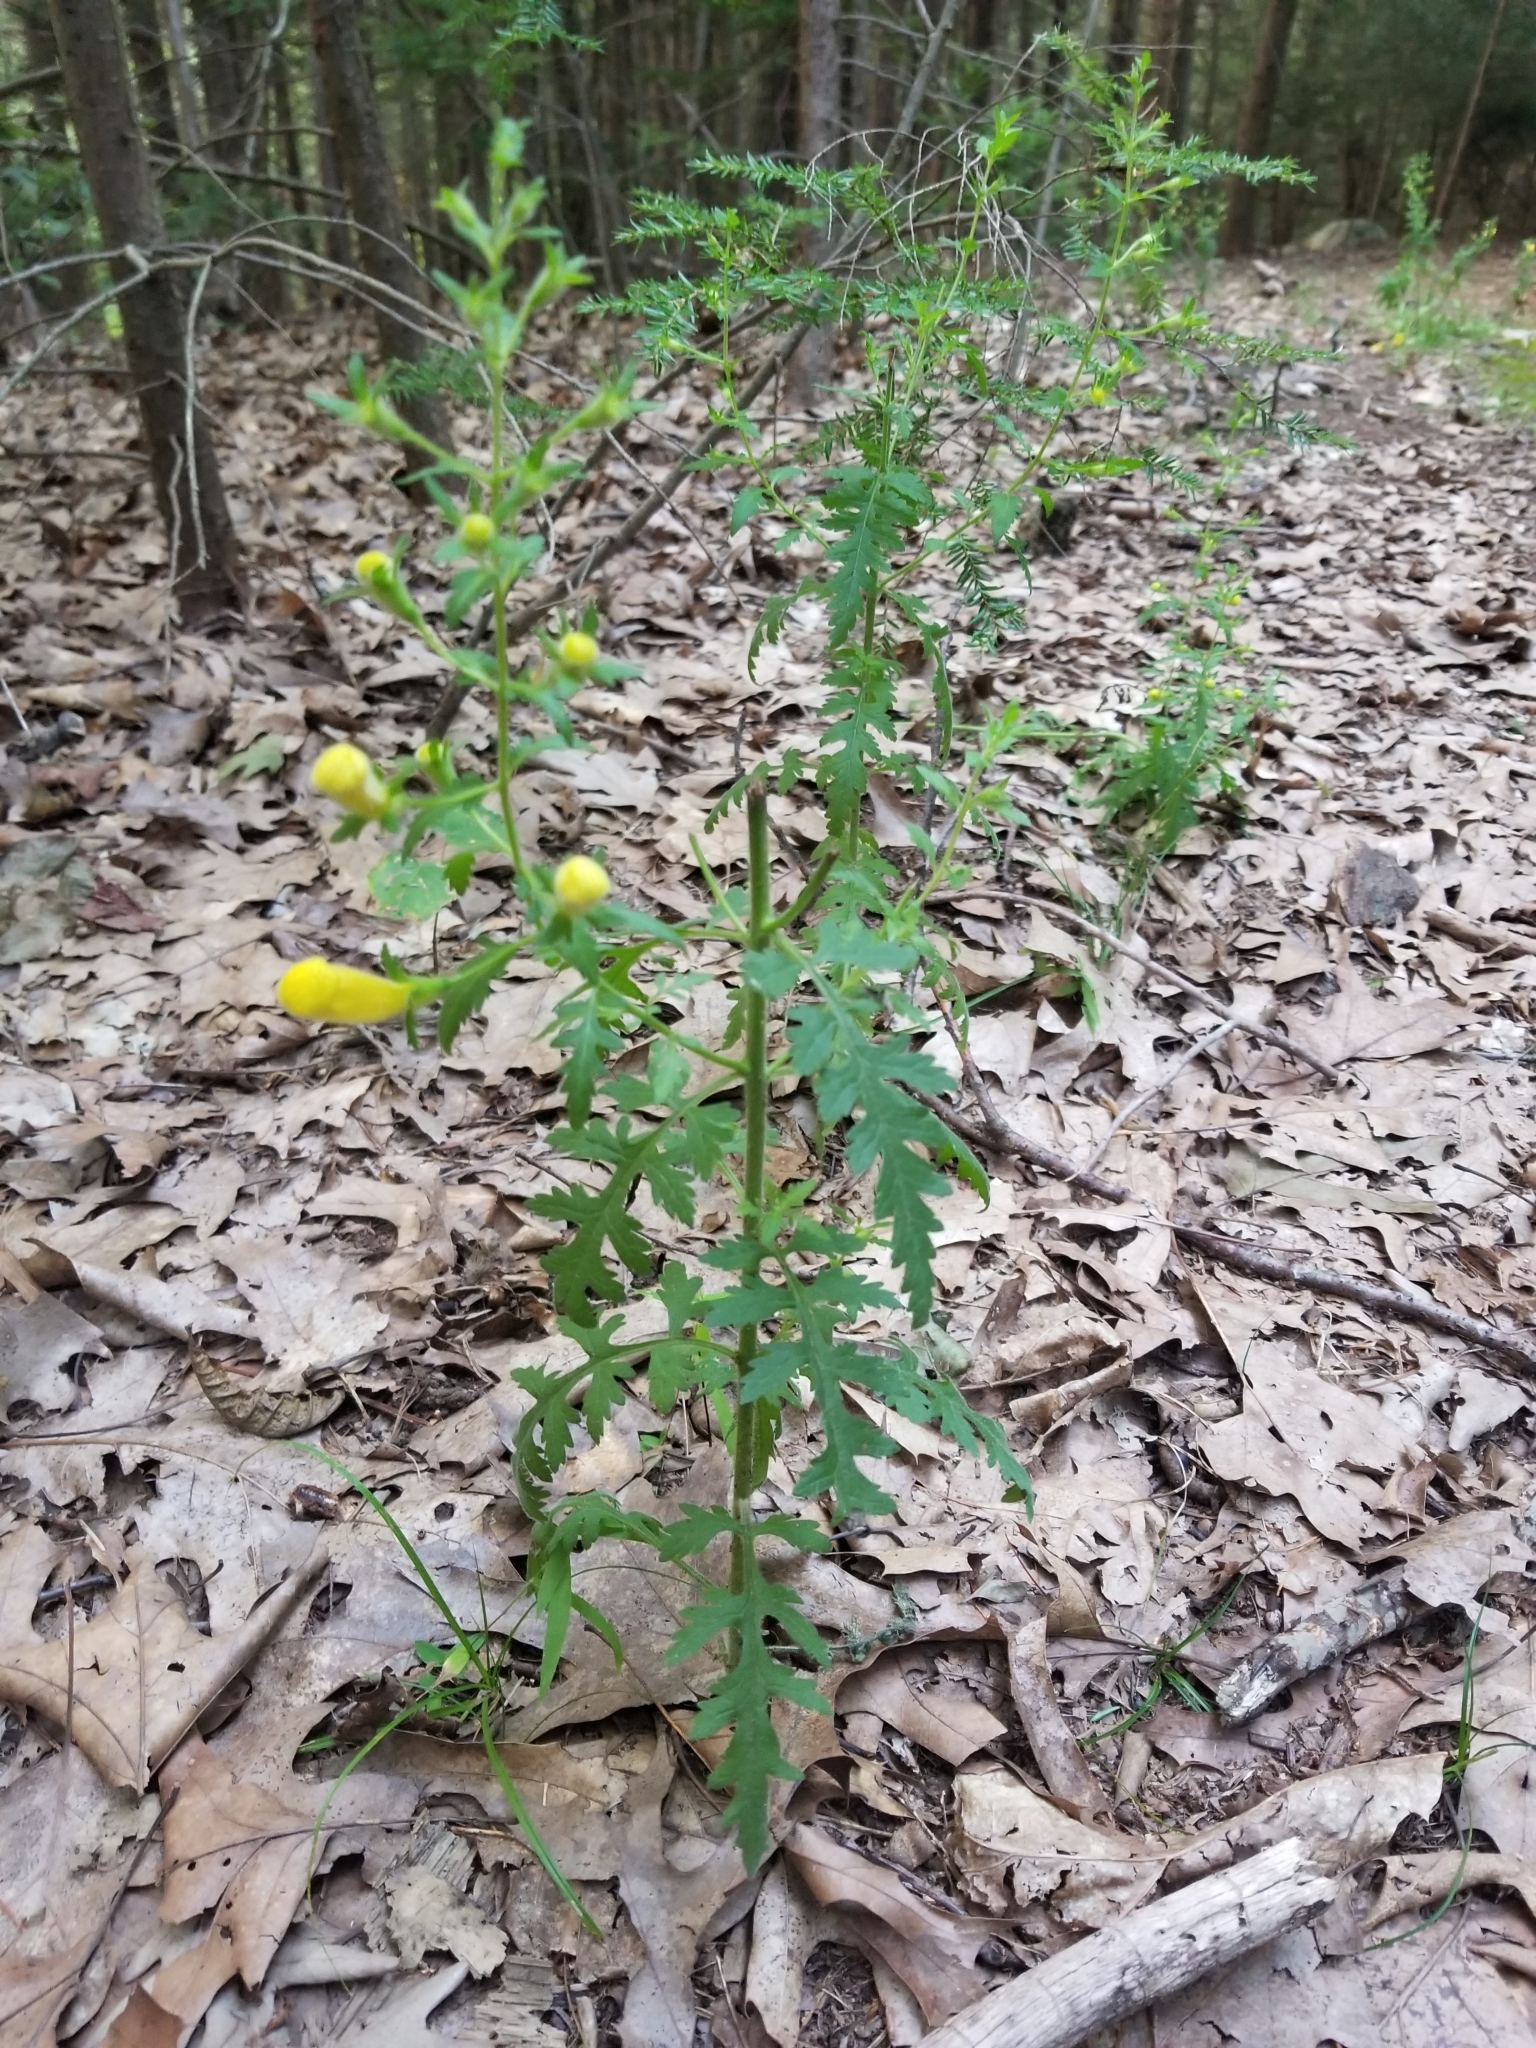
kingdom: Plantae
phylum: Tracheophyta
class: Magnoliopsida
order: Lamiales
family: Orobanchaceae
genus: Aureolaria
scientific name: Aureolaria pedicularia
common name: Annual false foxglove
